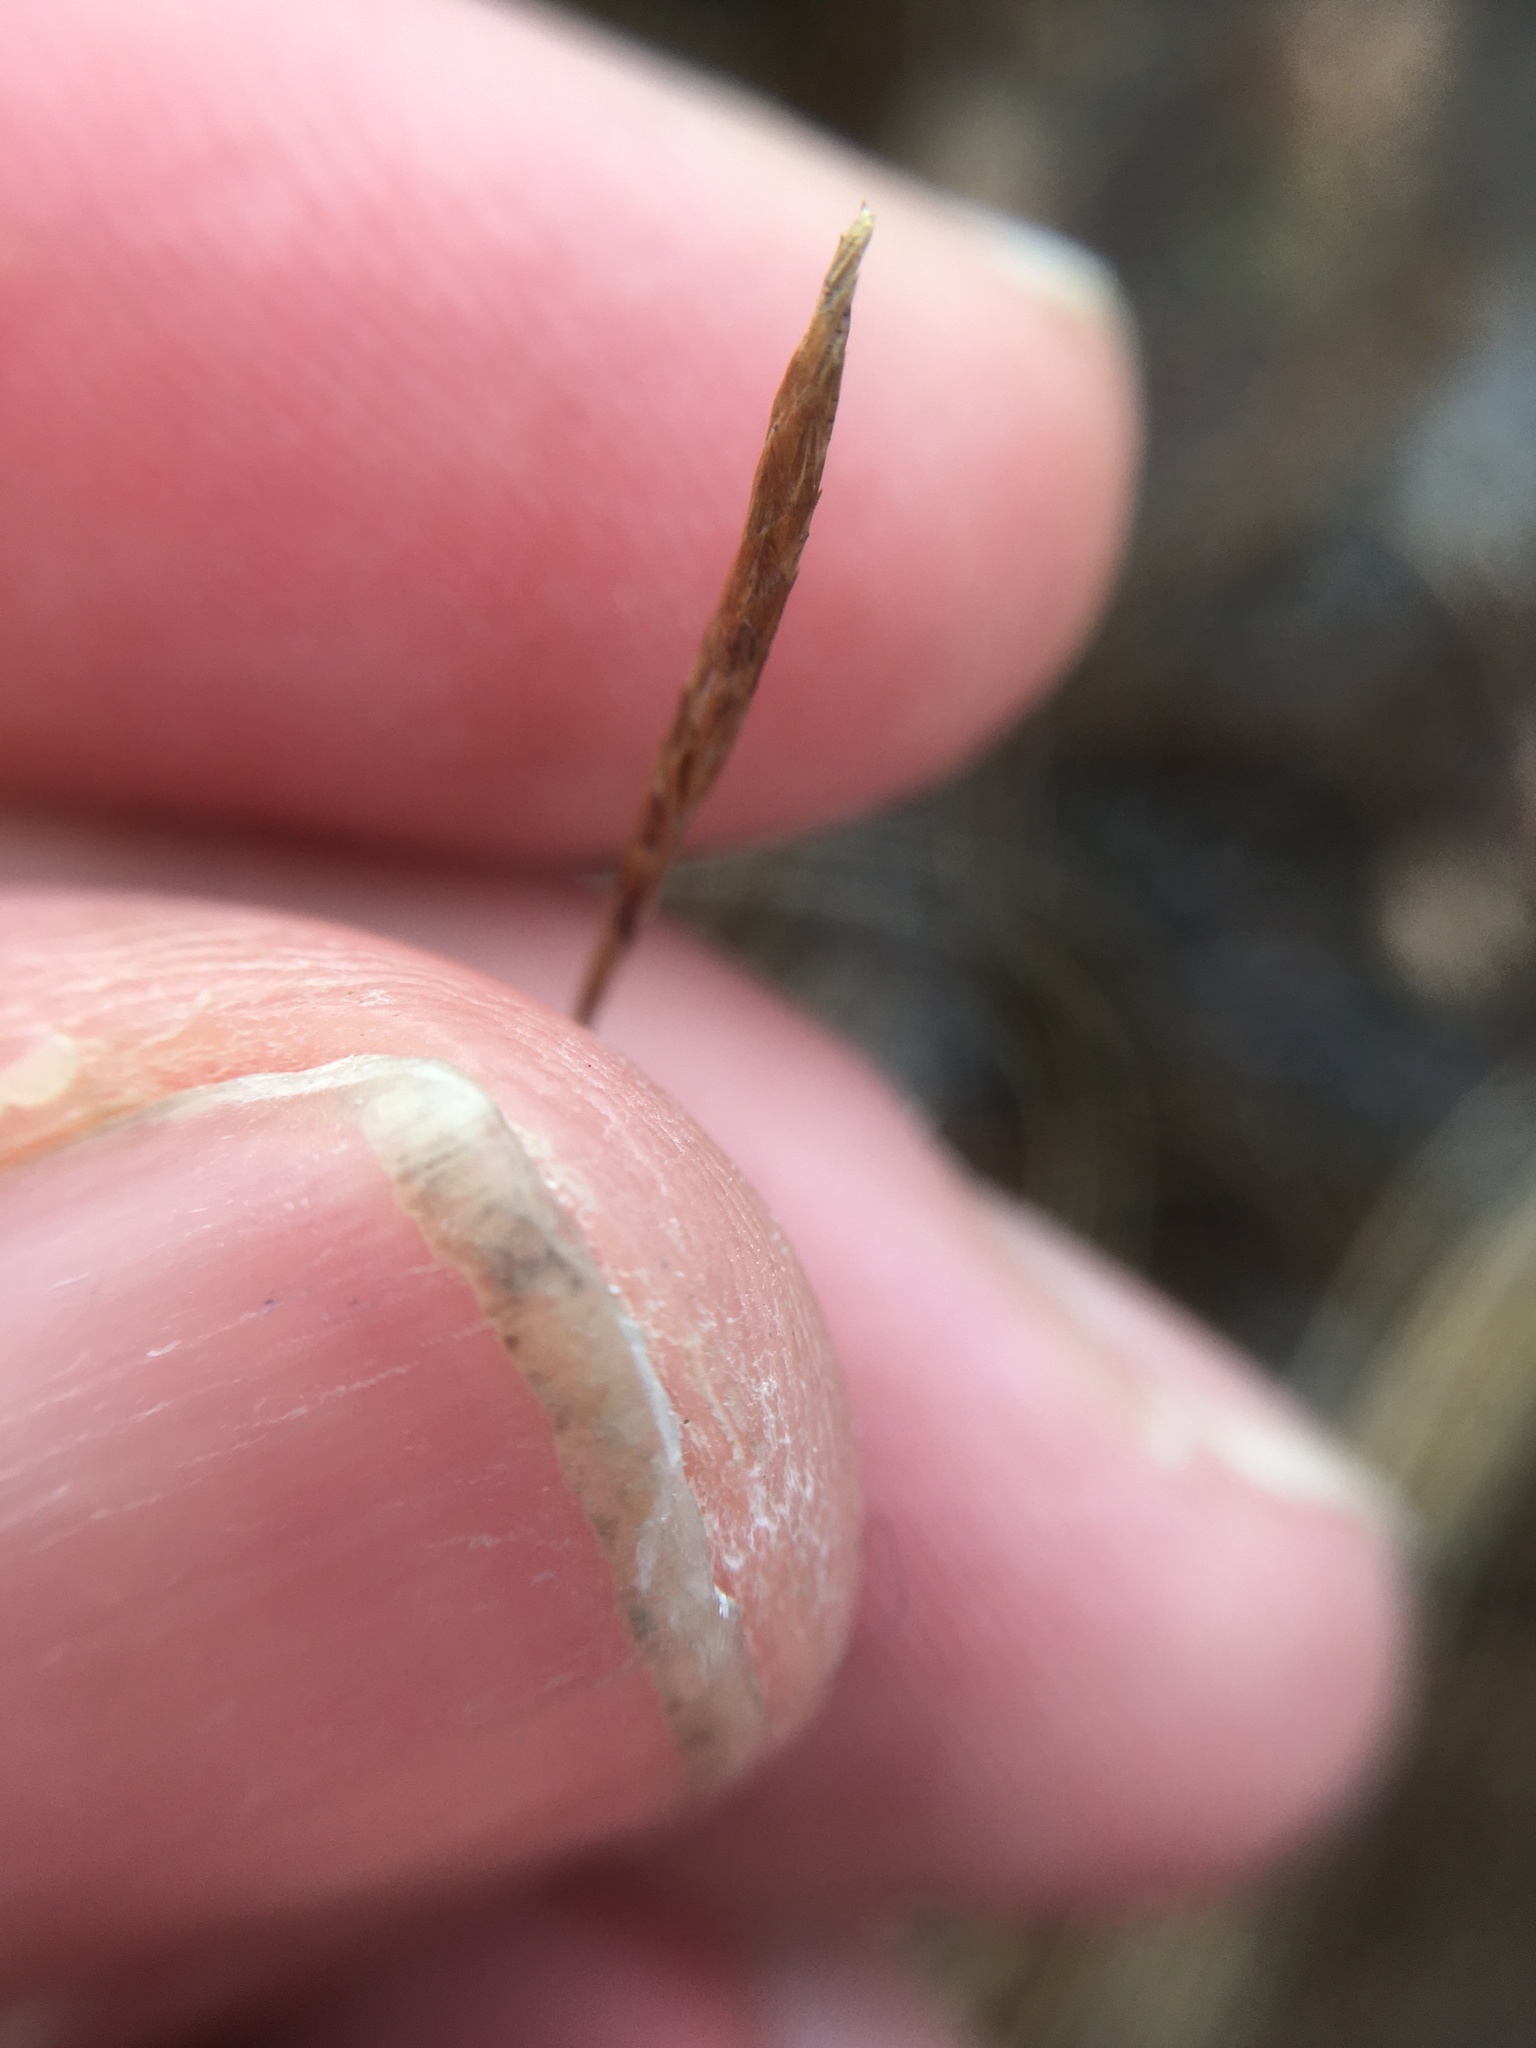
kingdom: Plantae
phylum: Tracheophyta
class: Liliopsida
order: Poales
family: Cyperaceae
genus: Carex
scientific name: Carex limosa
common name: Bog sedge
